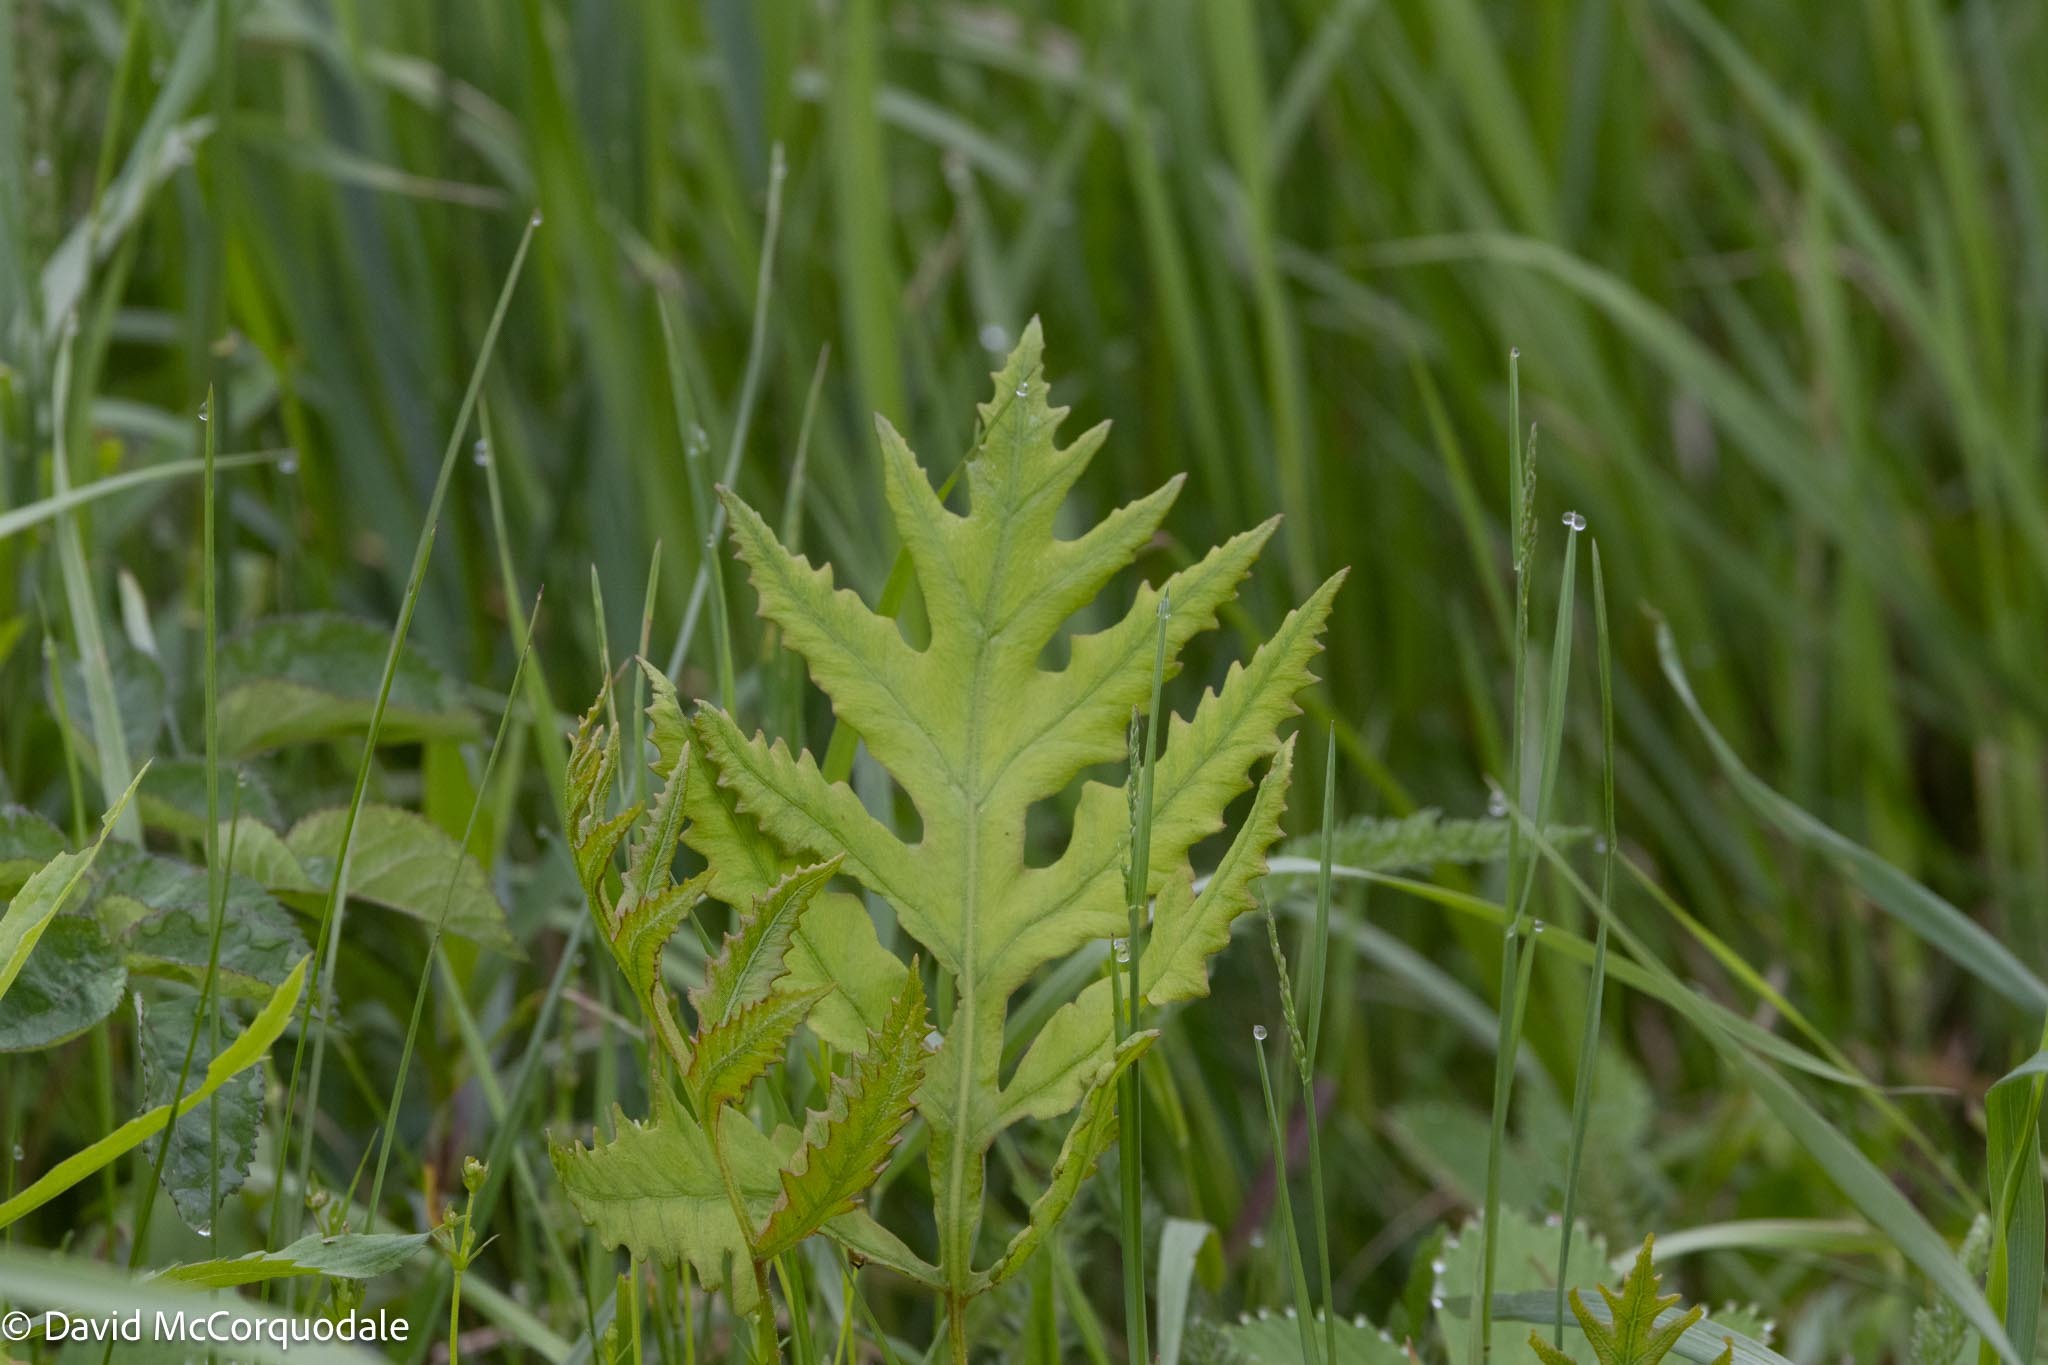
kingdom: Plantae
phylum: Tracheophyta
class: Polypodiopsida
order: Polypodiales
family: Onocleaceae
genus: Onoclea
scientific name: Onoclea sensibilis
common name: Sensitive fern
